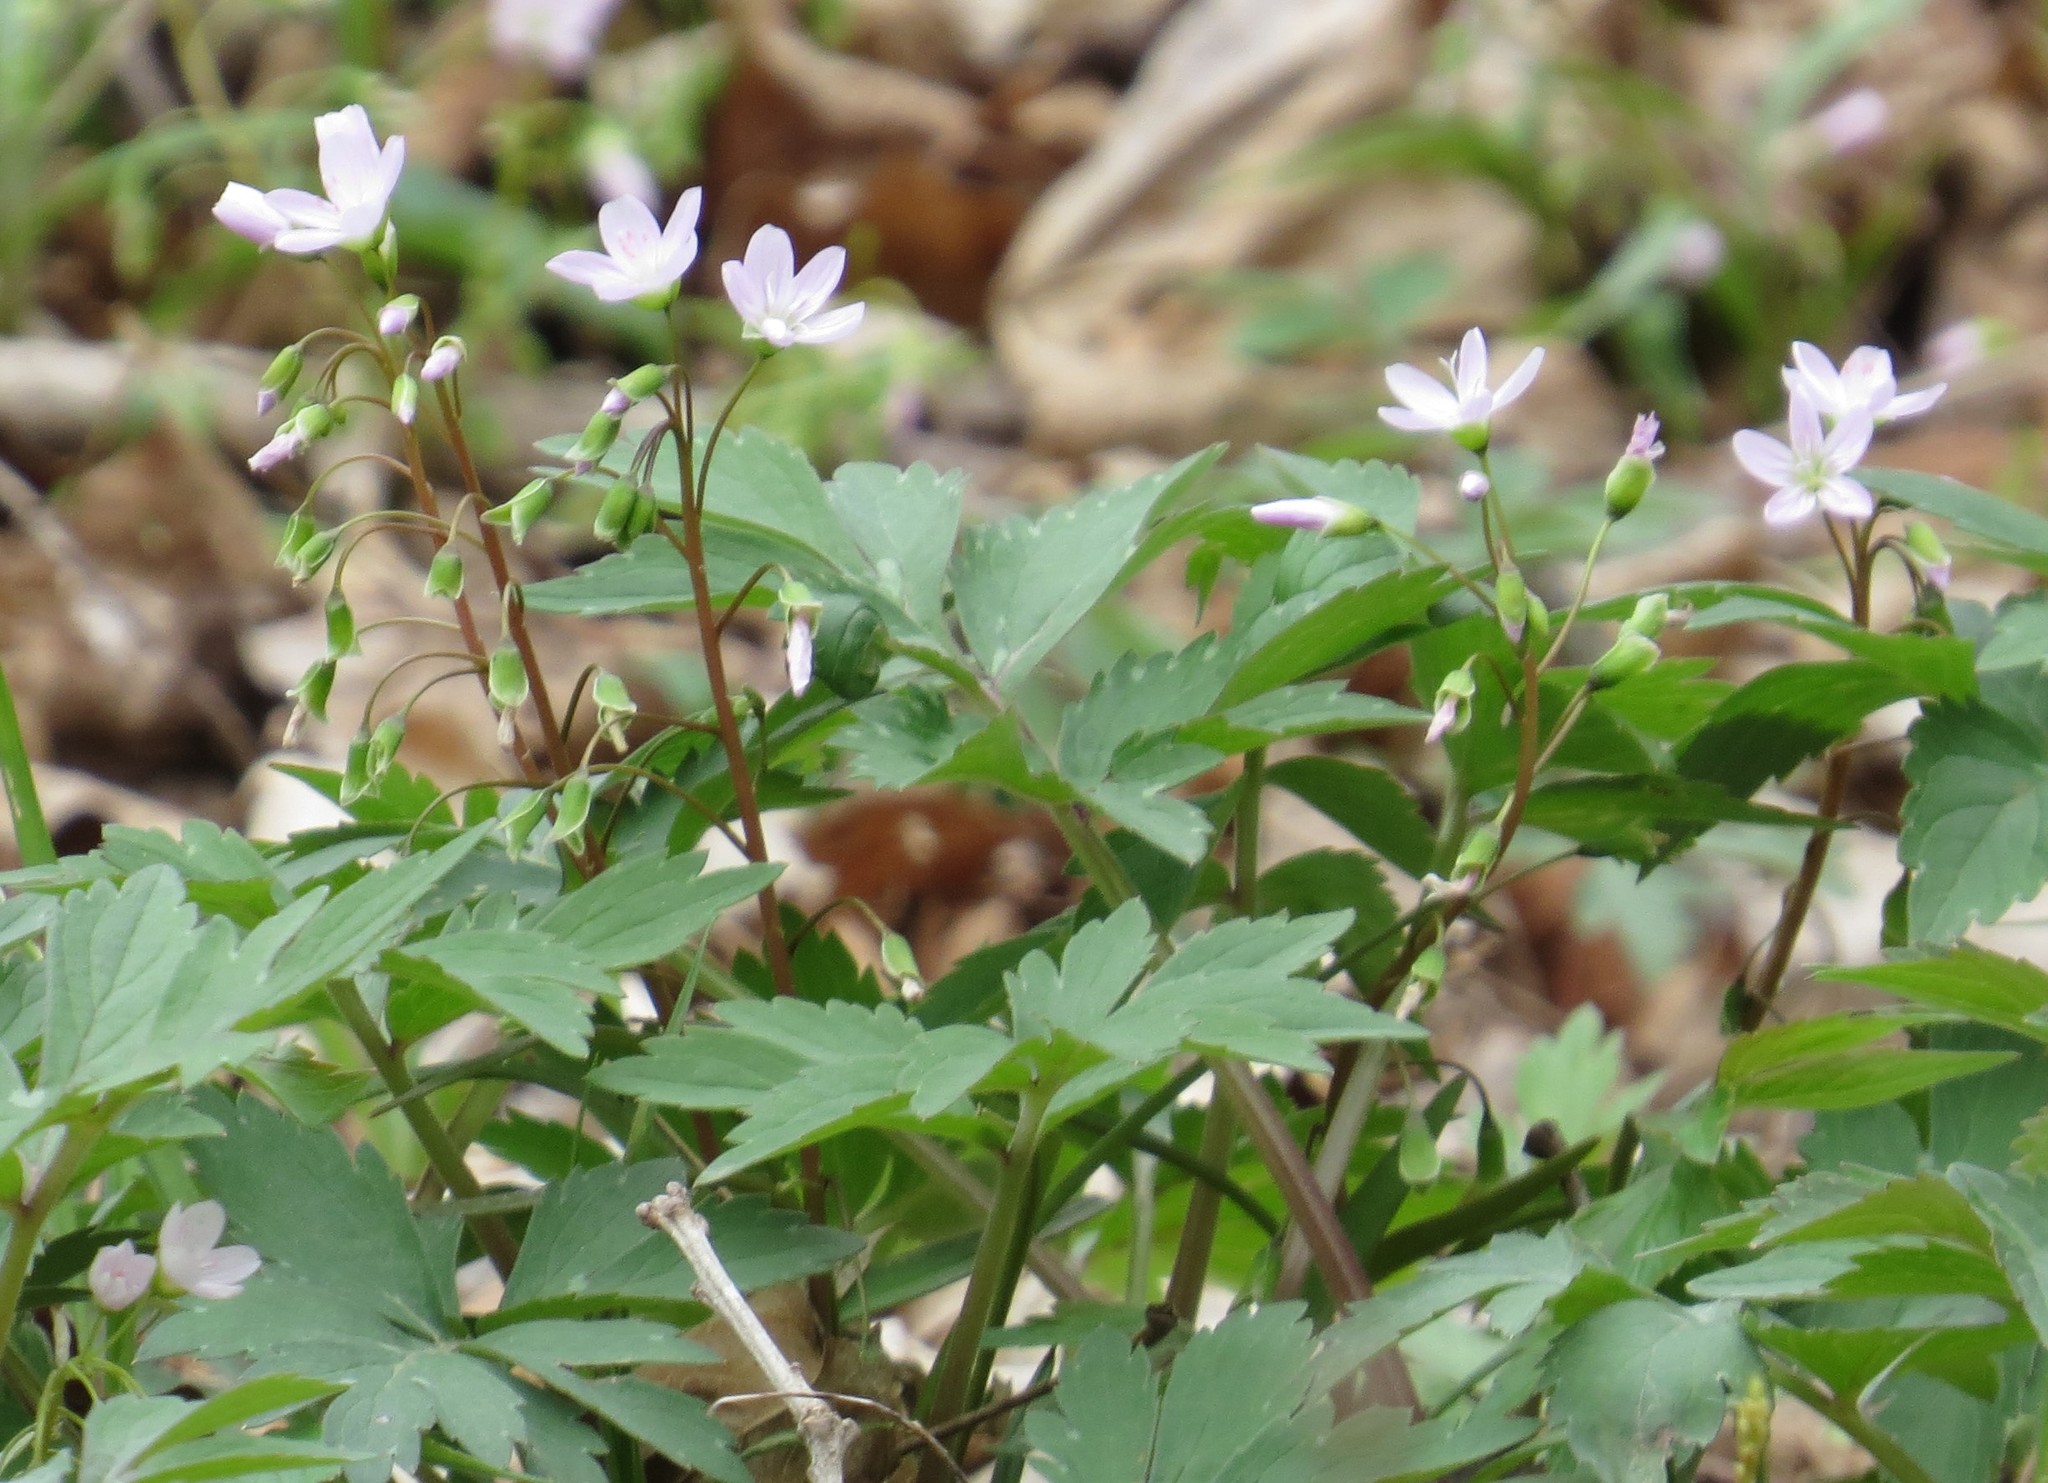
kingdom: Plantae
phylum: Tracheophyta
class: Magnoliopsida
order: Caryophyllales
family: Montiaceae
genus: Claytonia
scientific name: Claytonia virginica
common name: Virginia springbeauty
